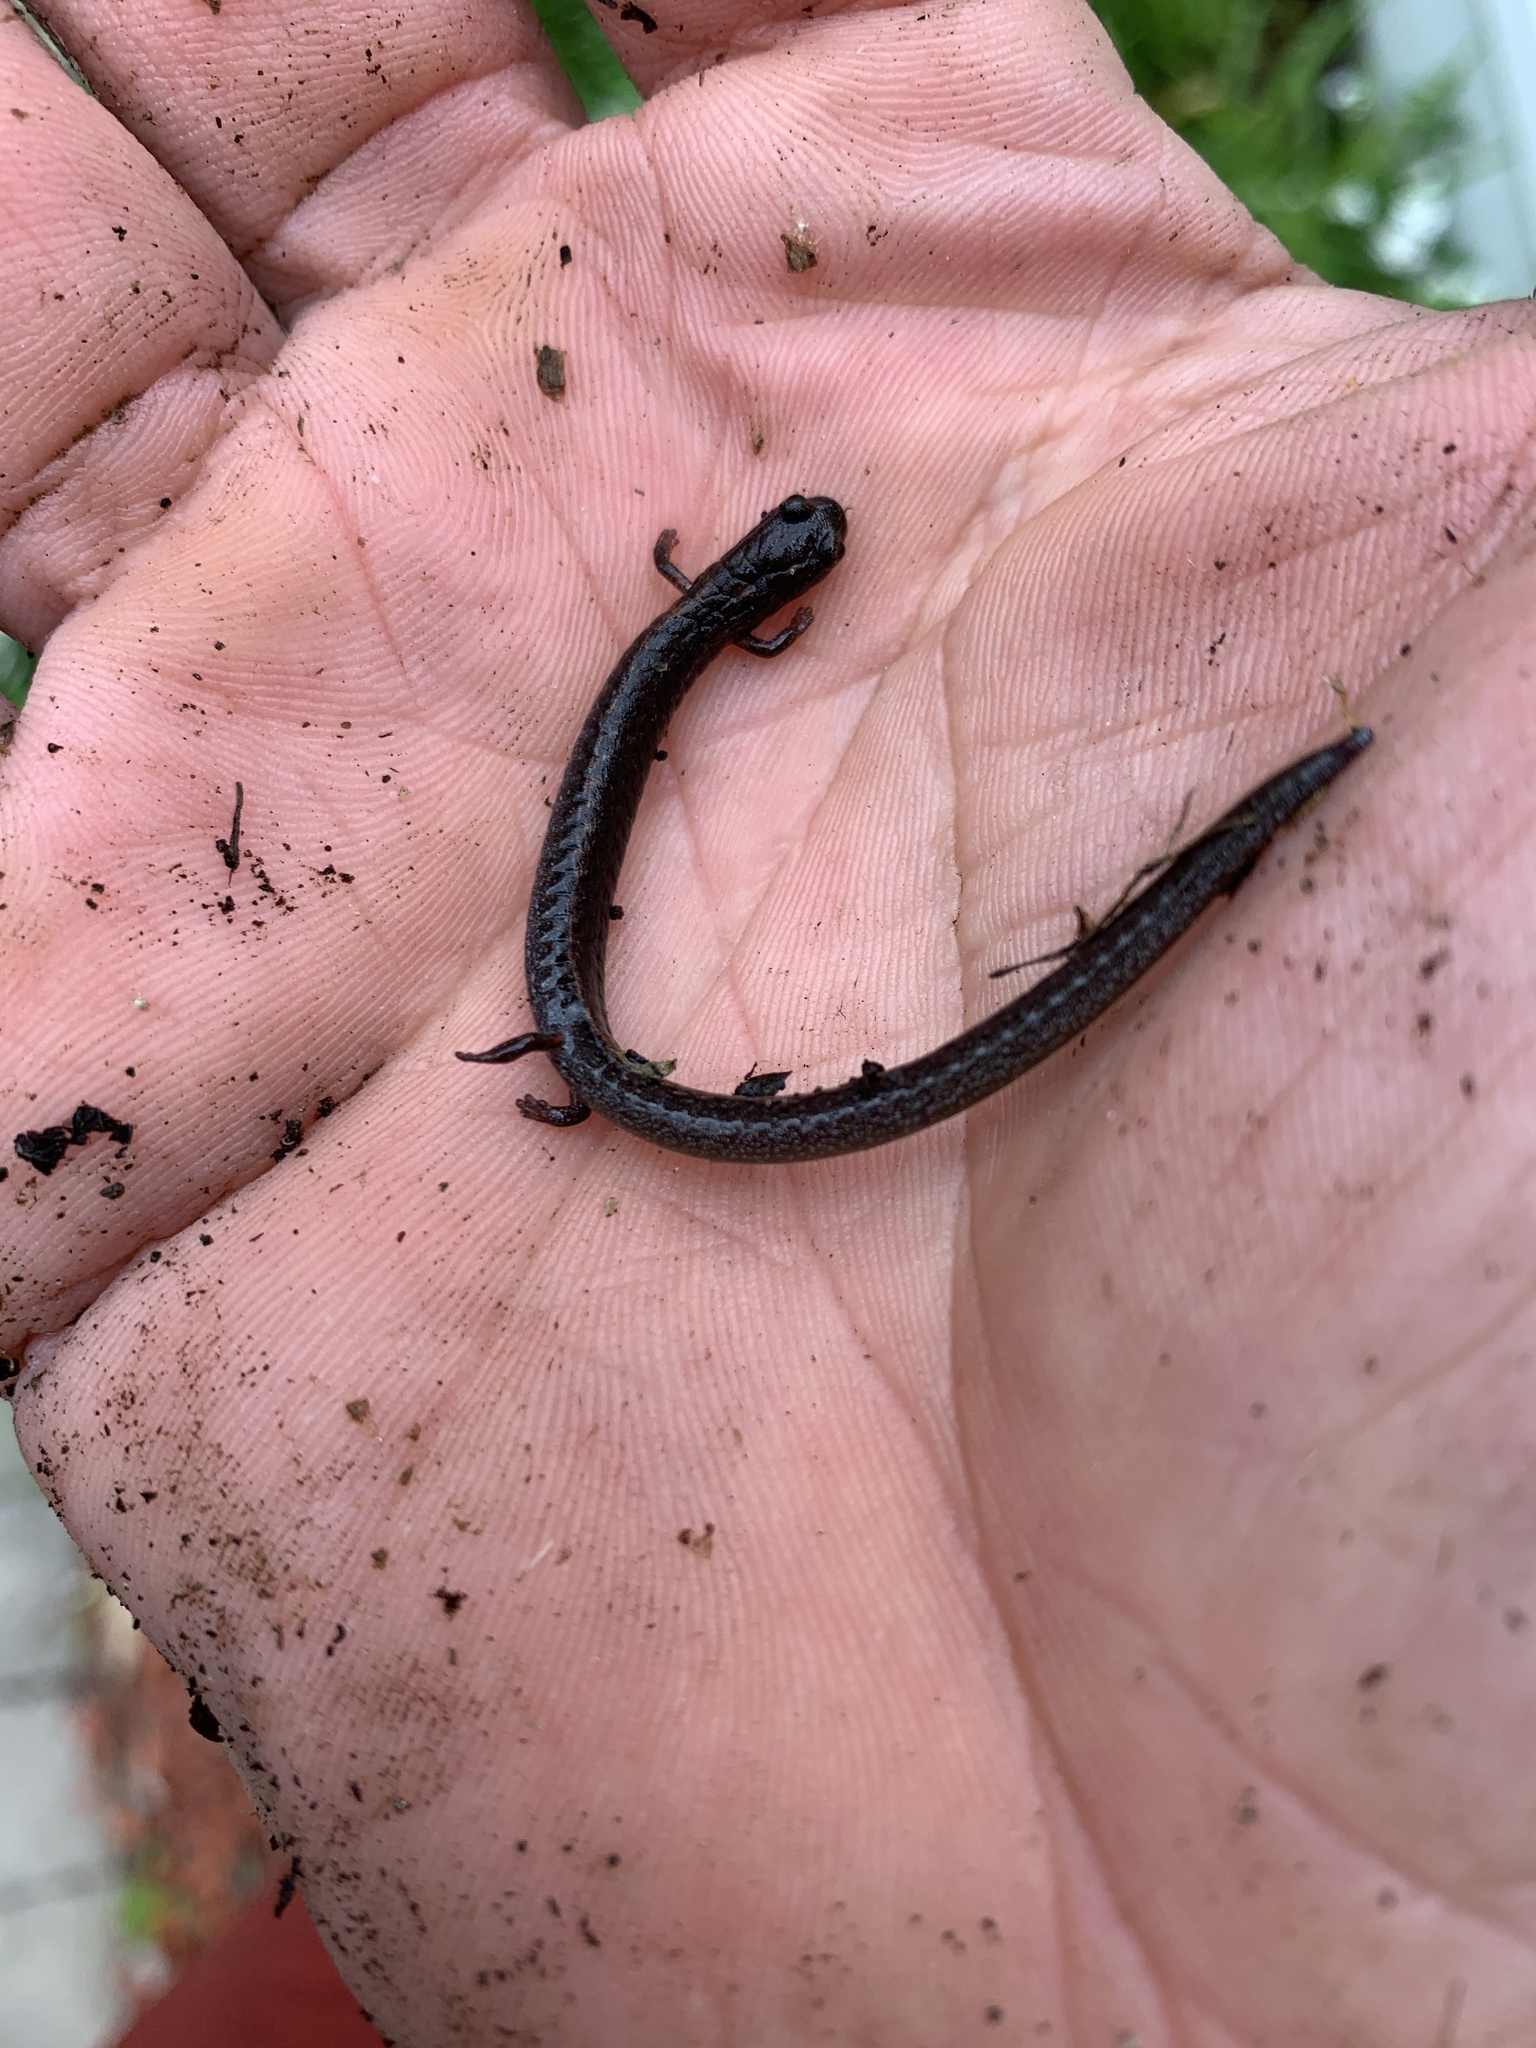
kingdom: Animalia
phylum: Chordata
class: Amphibia
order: Caudata
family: Plethodontidae
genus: Batrachoseps
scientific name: Batrachoseps attenuatus
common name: California slender salamander
